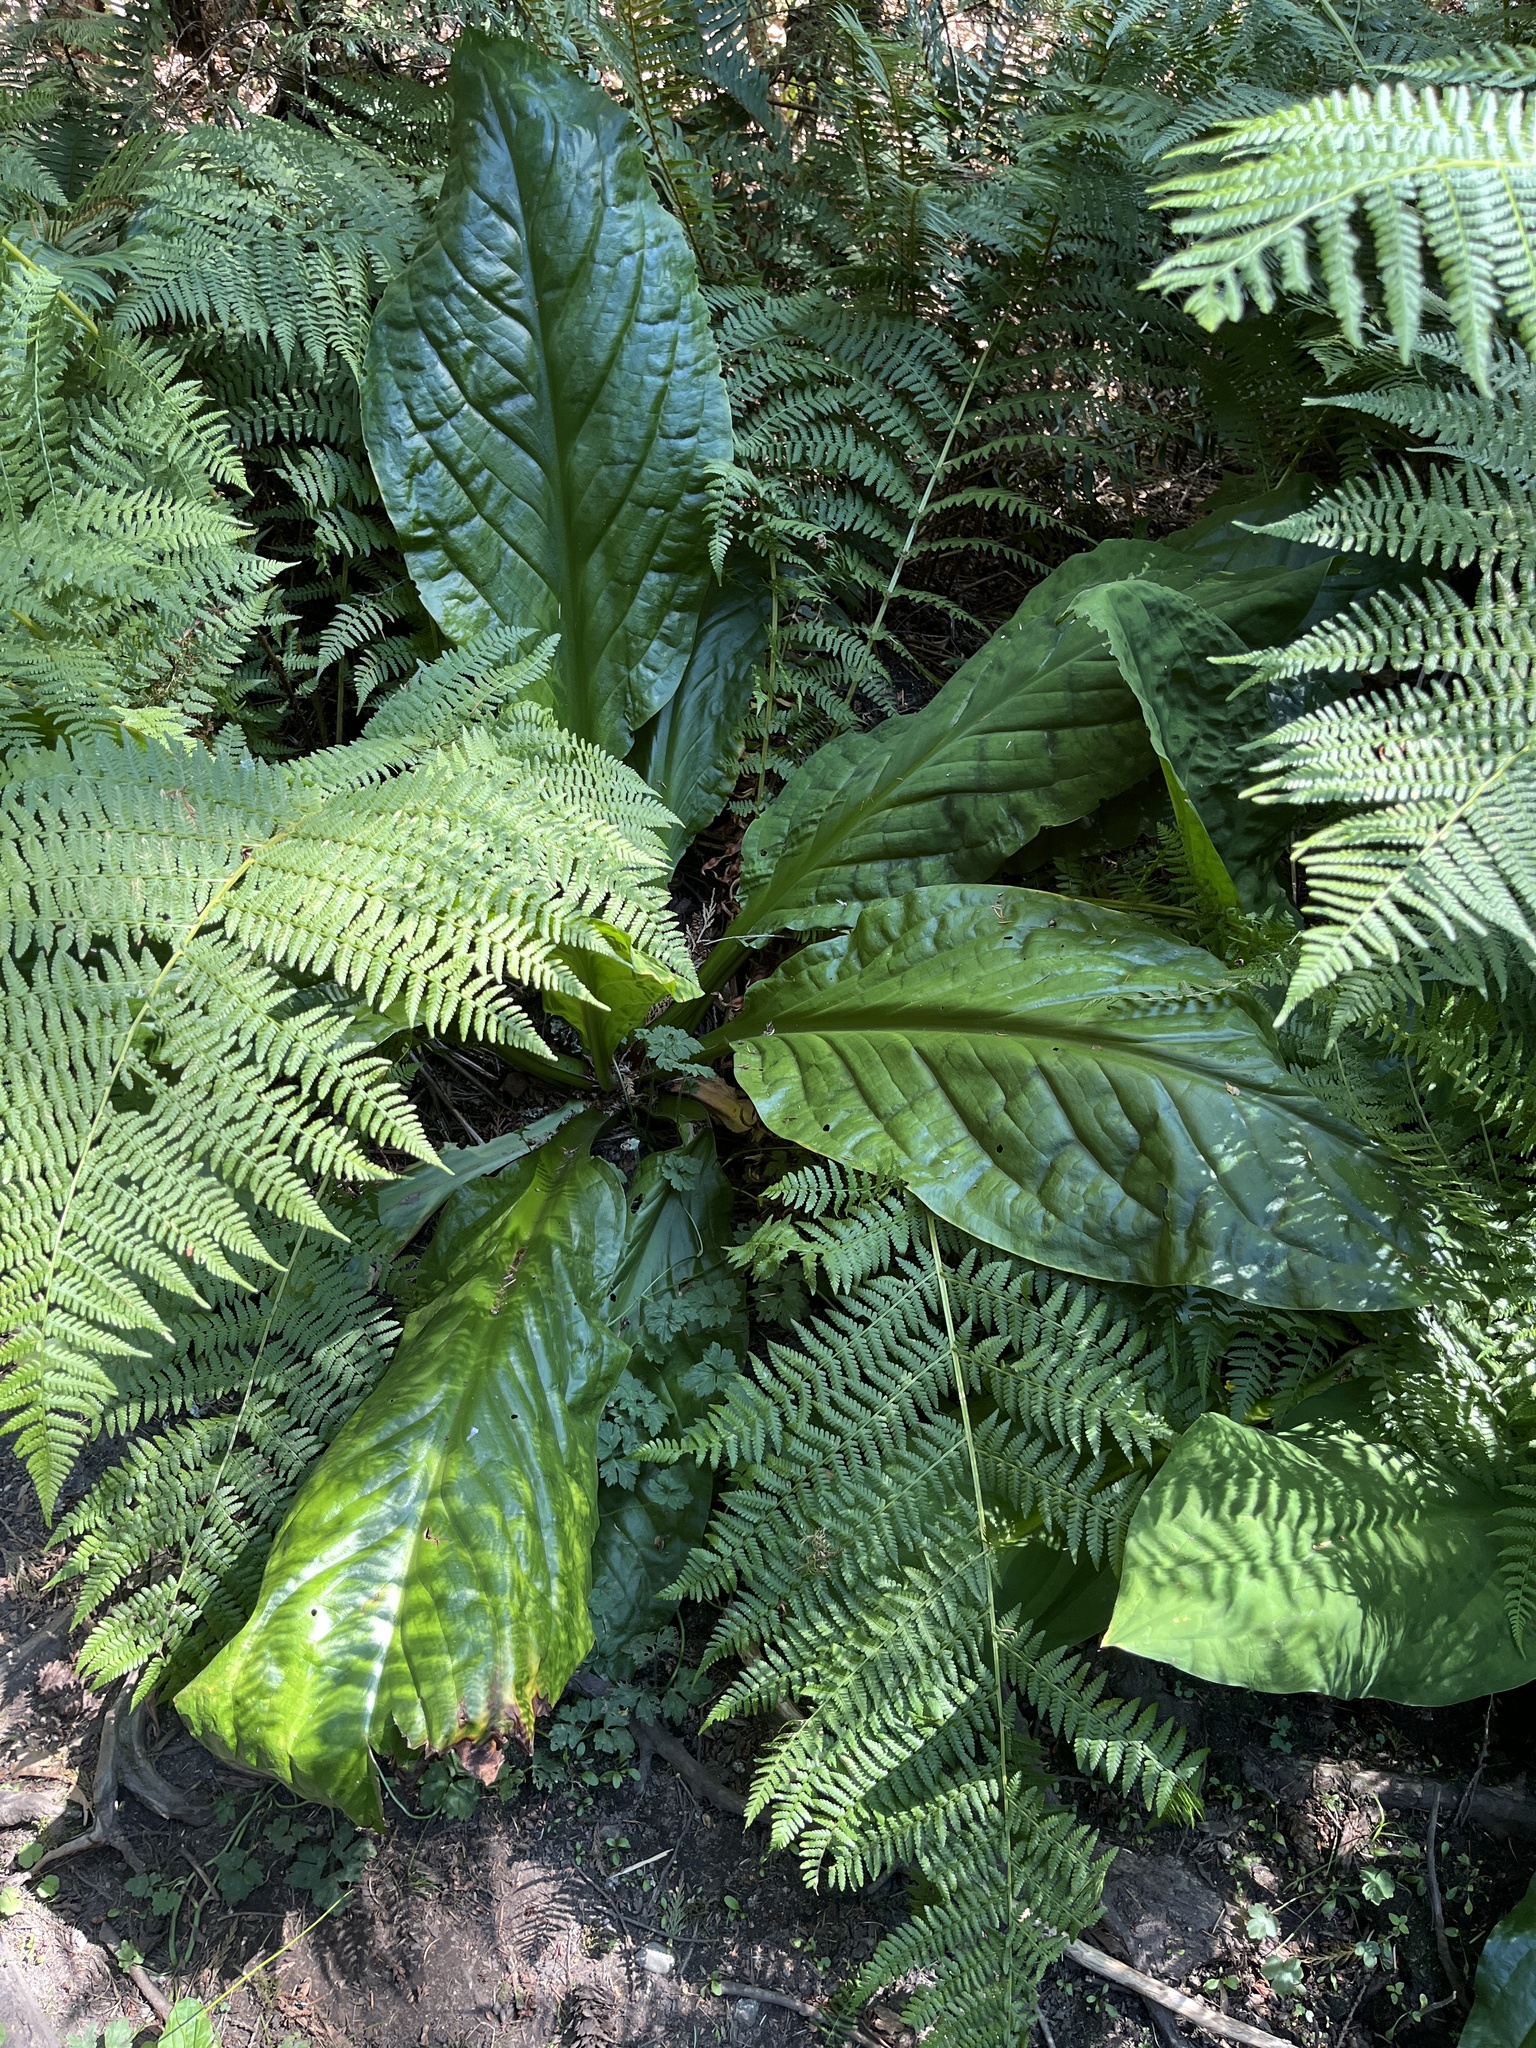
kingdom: Plantae
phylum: Tracheophyta
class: Liliopsida
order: Alismatales
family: Araceae
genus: Lysichiton
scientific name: Lysichiton americanus
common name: American skunk cabbage
